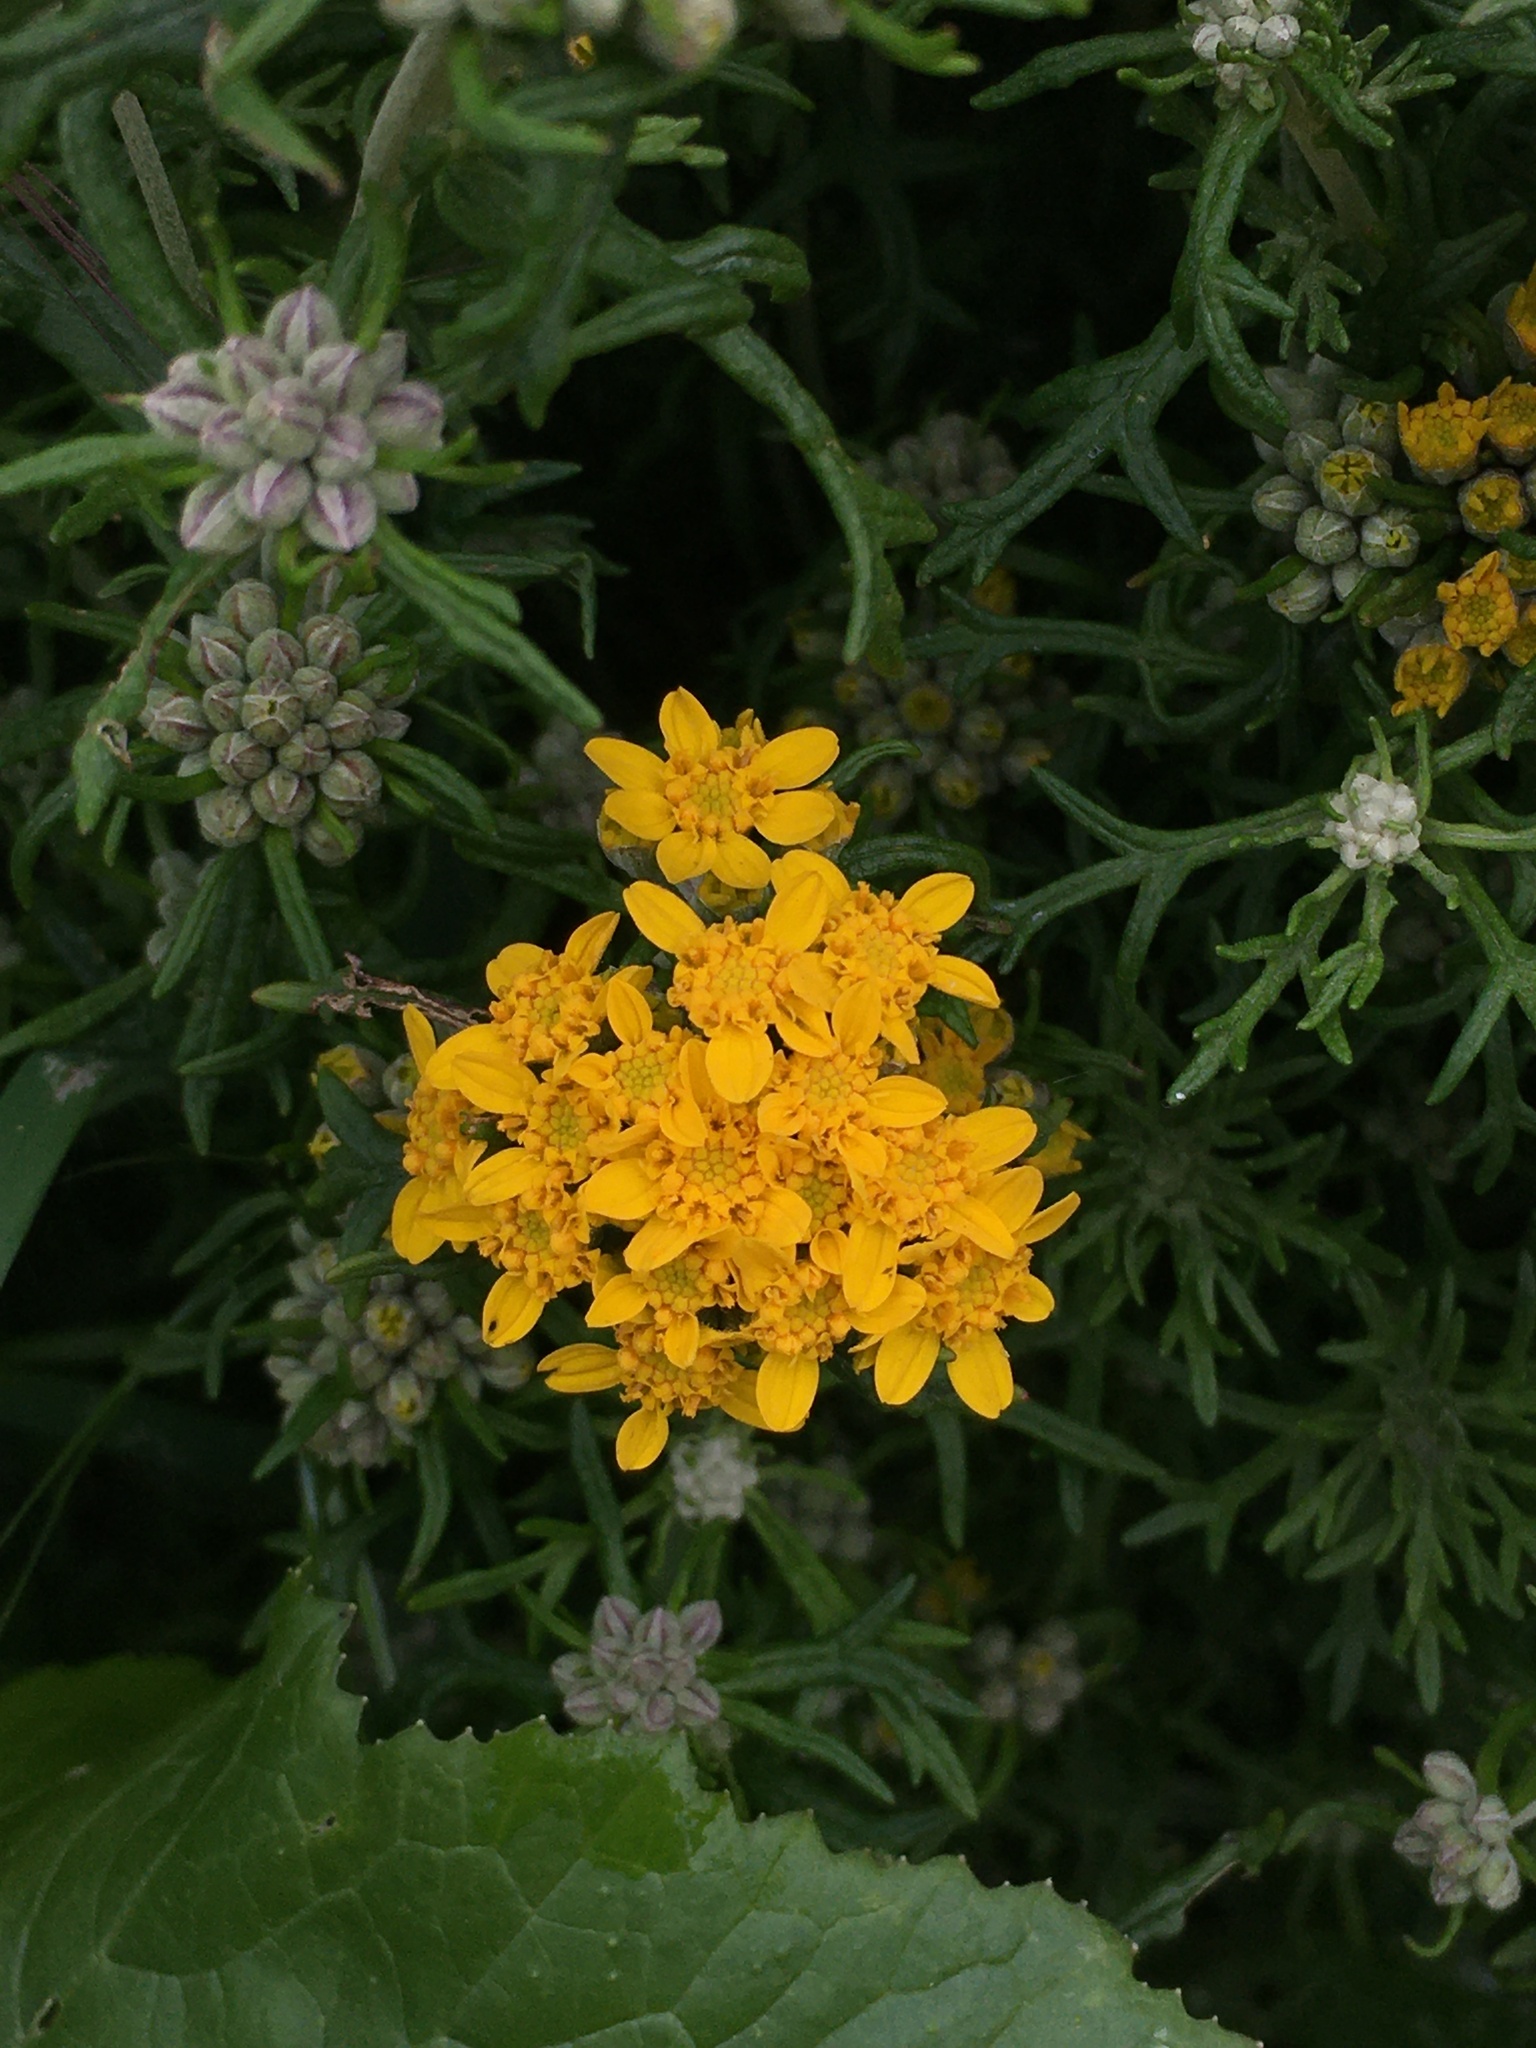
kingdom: Plantae
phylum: Tracheophyta
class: Magnoliopsida
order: Asterales
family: Asteraceae
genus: Eriophyllum
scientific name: Eriophyllum confertiflorum
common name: Golden-yarrow
